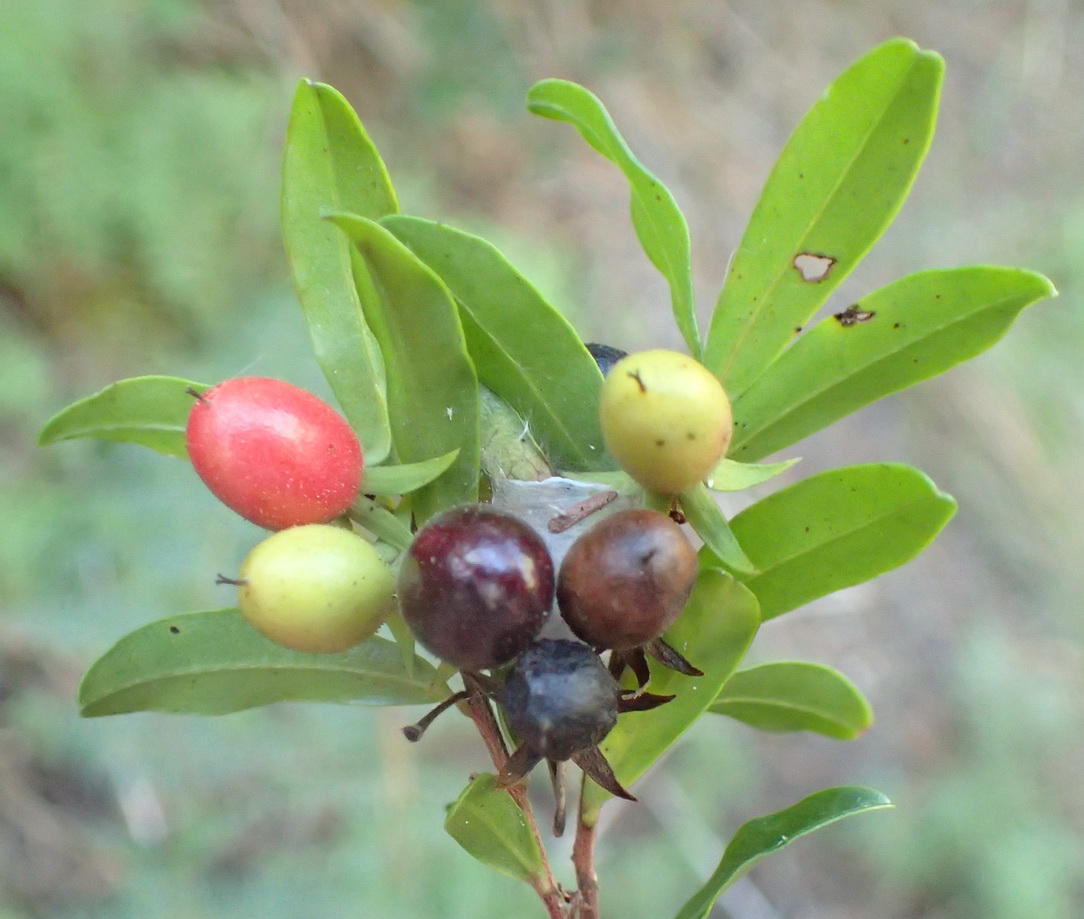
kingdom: Plantae
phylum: Tracheophyta
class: Magnoliopsida
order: Ericales
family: Ebenaceae
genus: Diospyros
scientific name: Diospyros glabra
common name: Fynbos star apple
